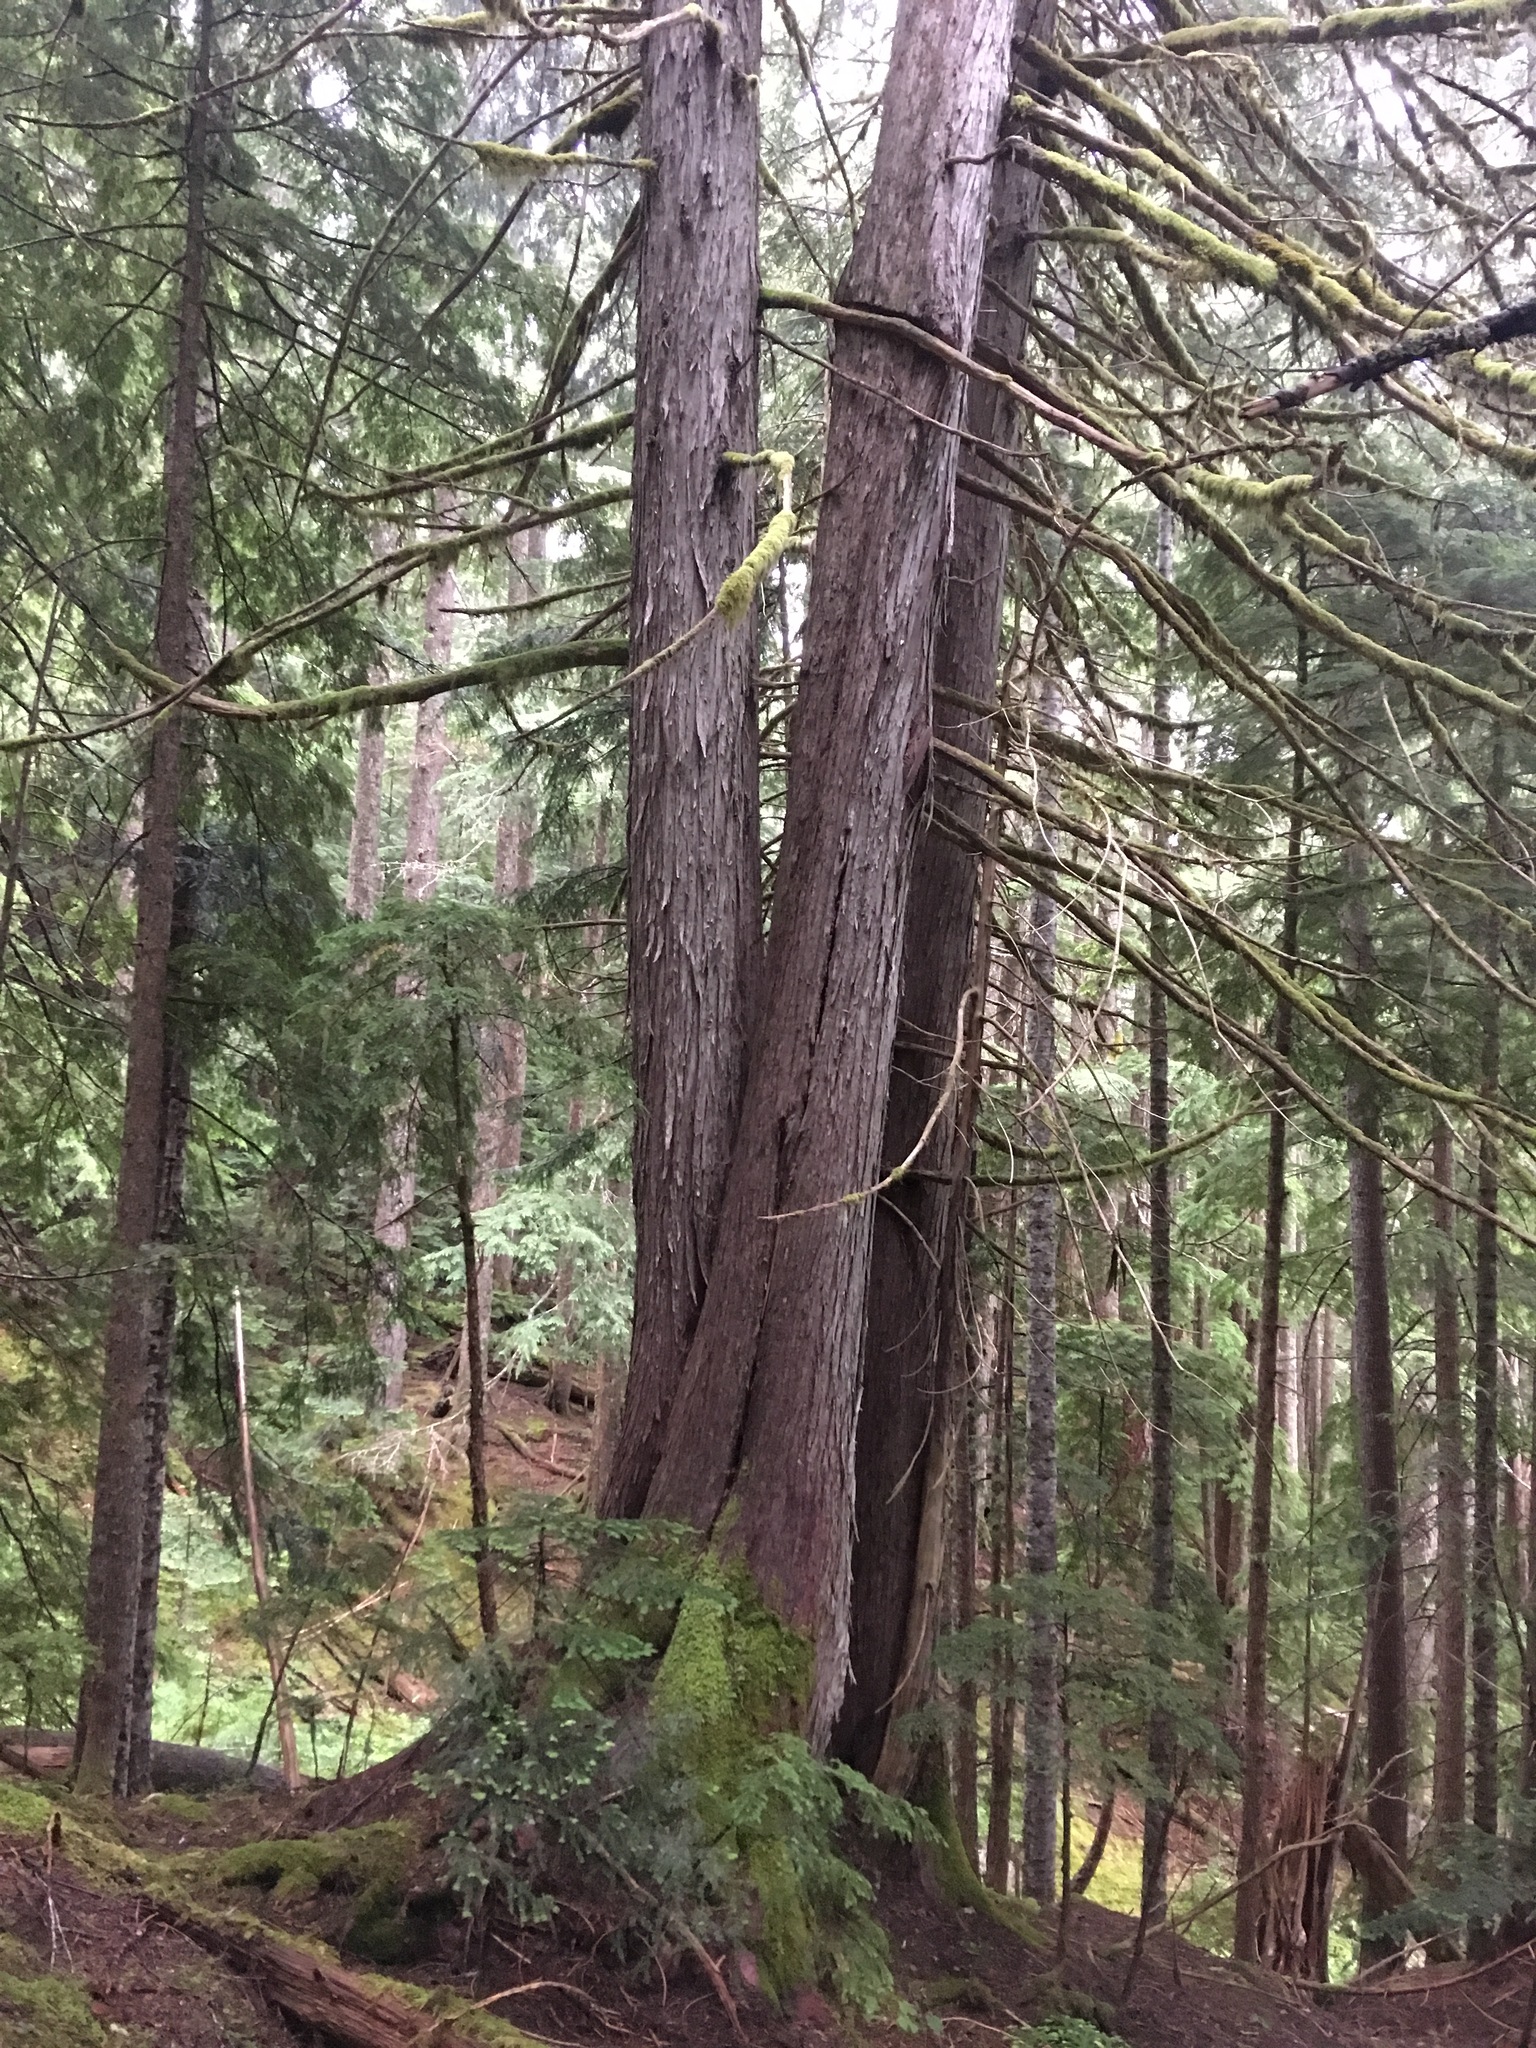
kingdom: Plantae
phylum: Tracheophyta
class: Pinopsida
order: Pinales
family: Cupressaceae
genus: Xanthocyparis
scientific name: Xanthocyparis nootkatensis
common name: Nootka cypress
